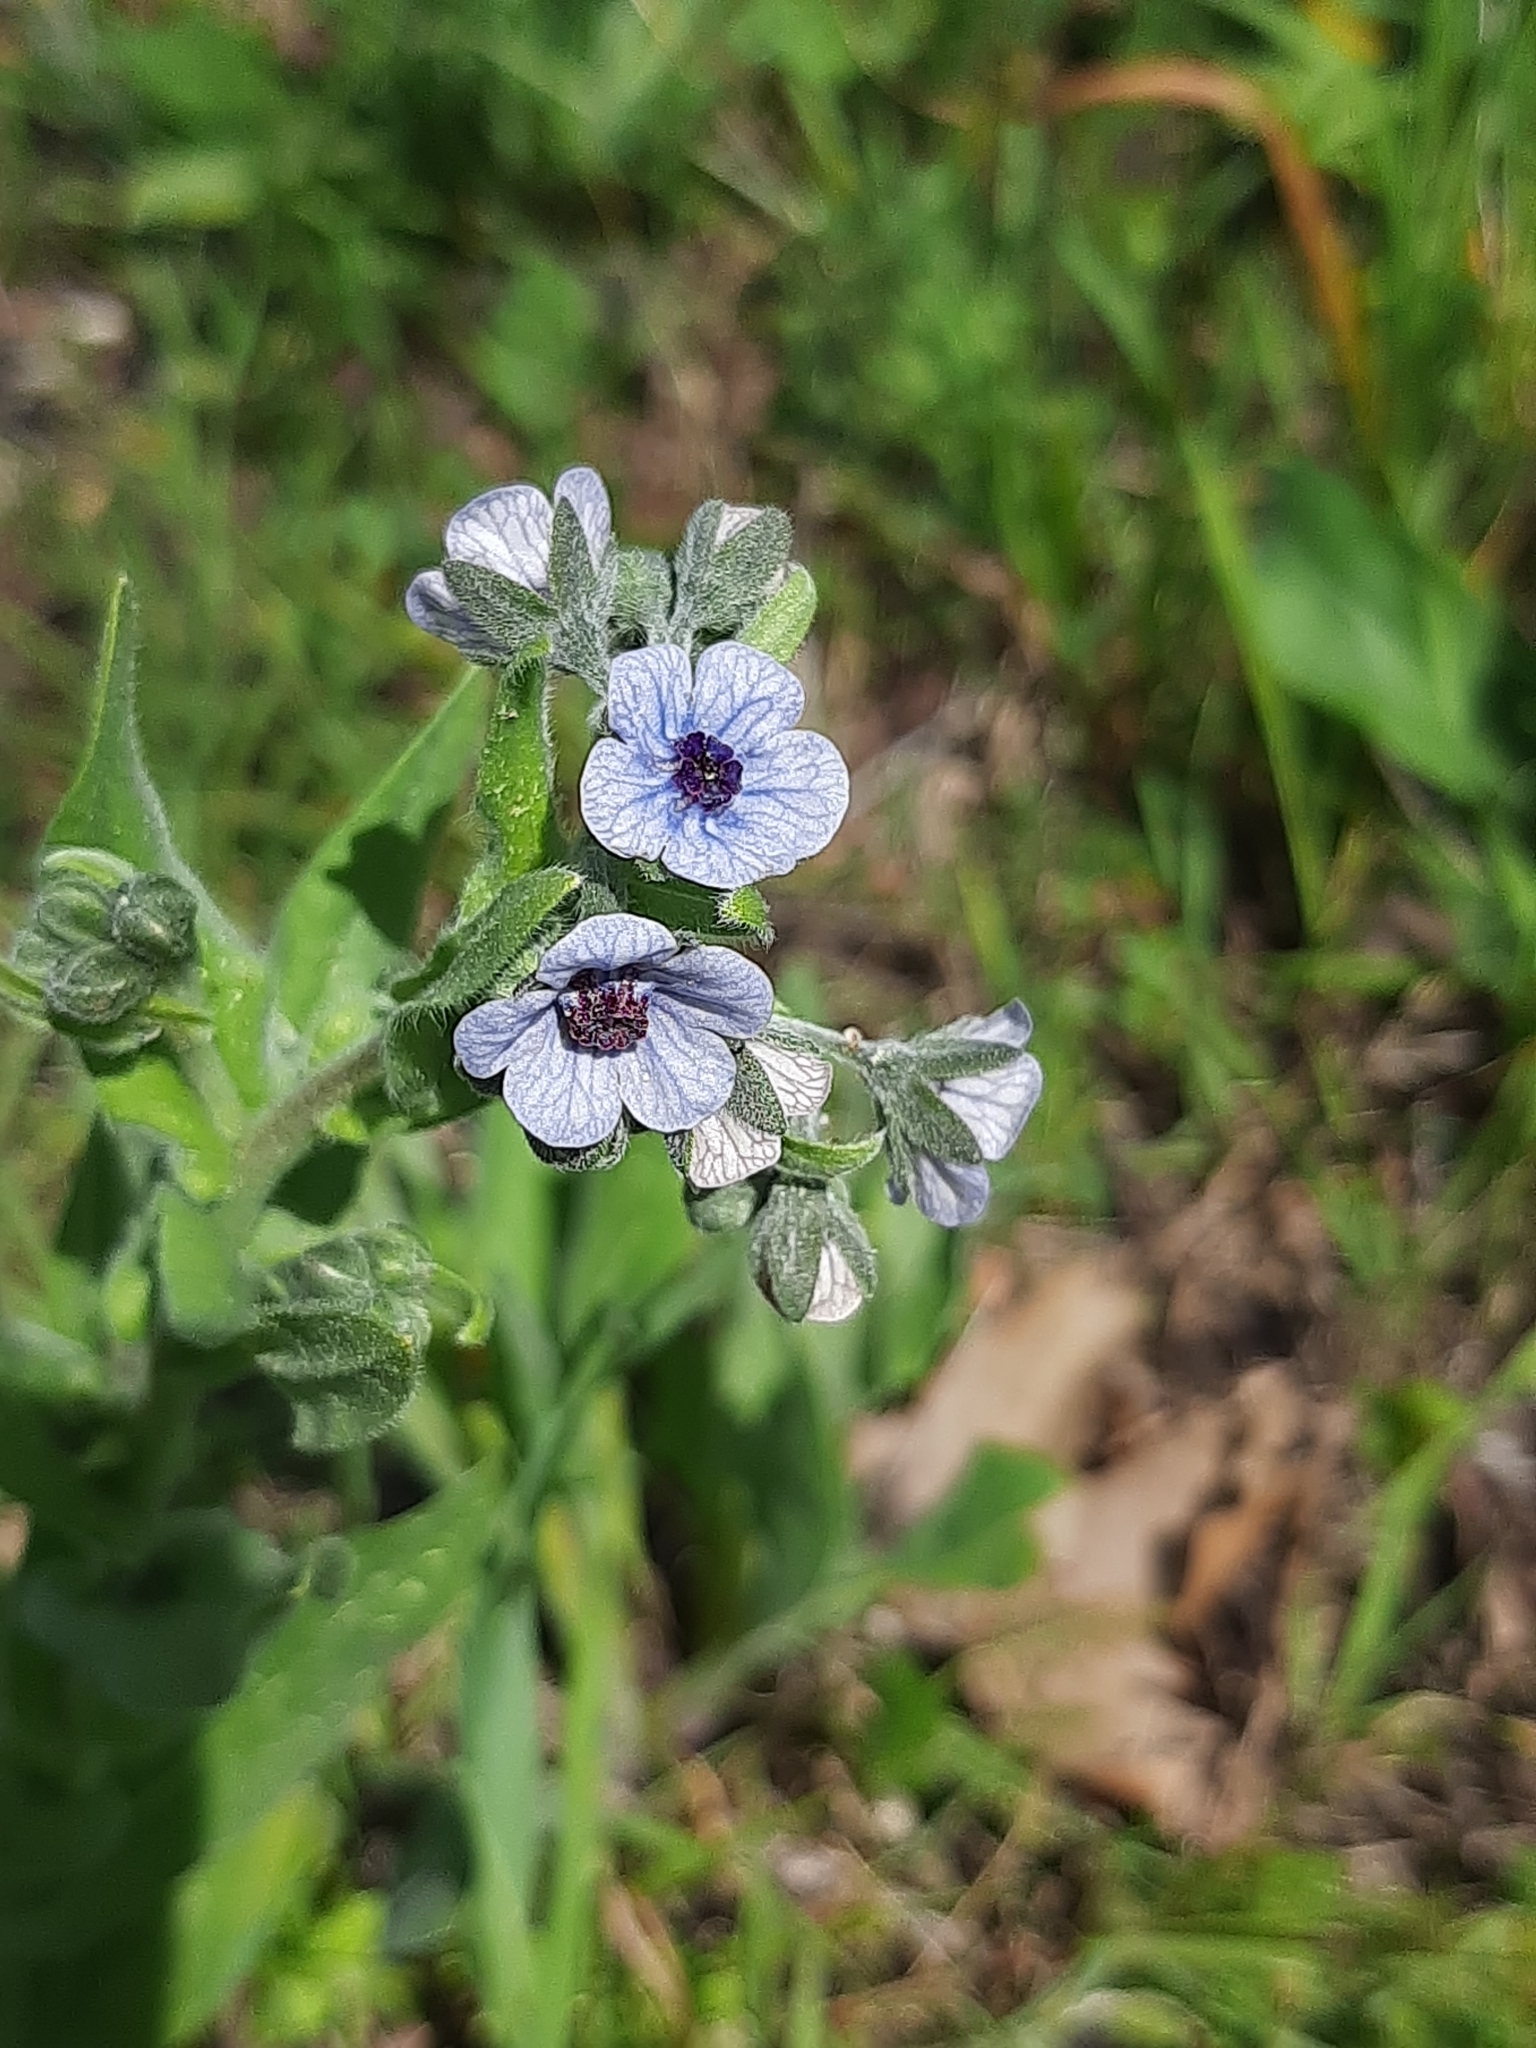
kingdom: Plantae
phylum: Tracheophyta
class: Magnoliopsida
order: Boraginales
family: Boraginaceae
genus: Cynoglossum
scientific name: Cynoglossum creticum
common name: Blue hound's tongue
